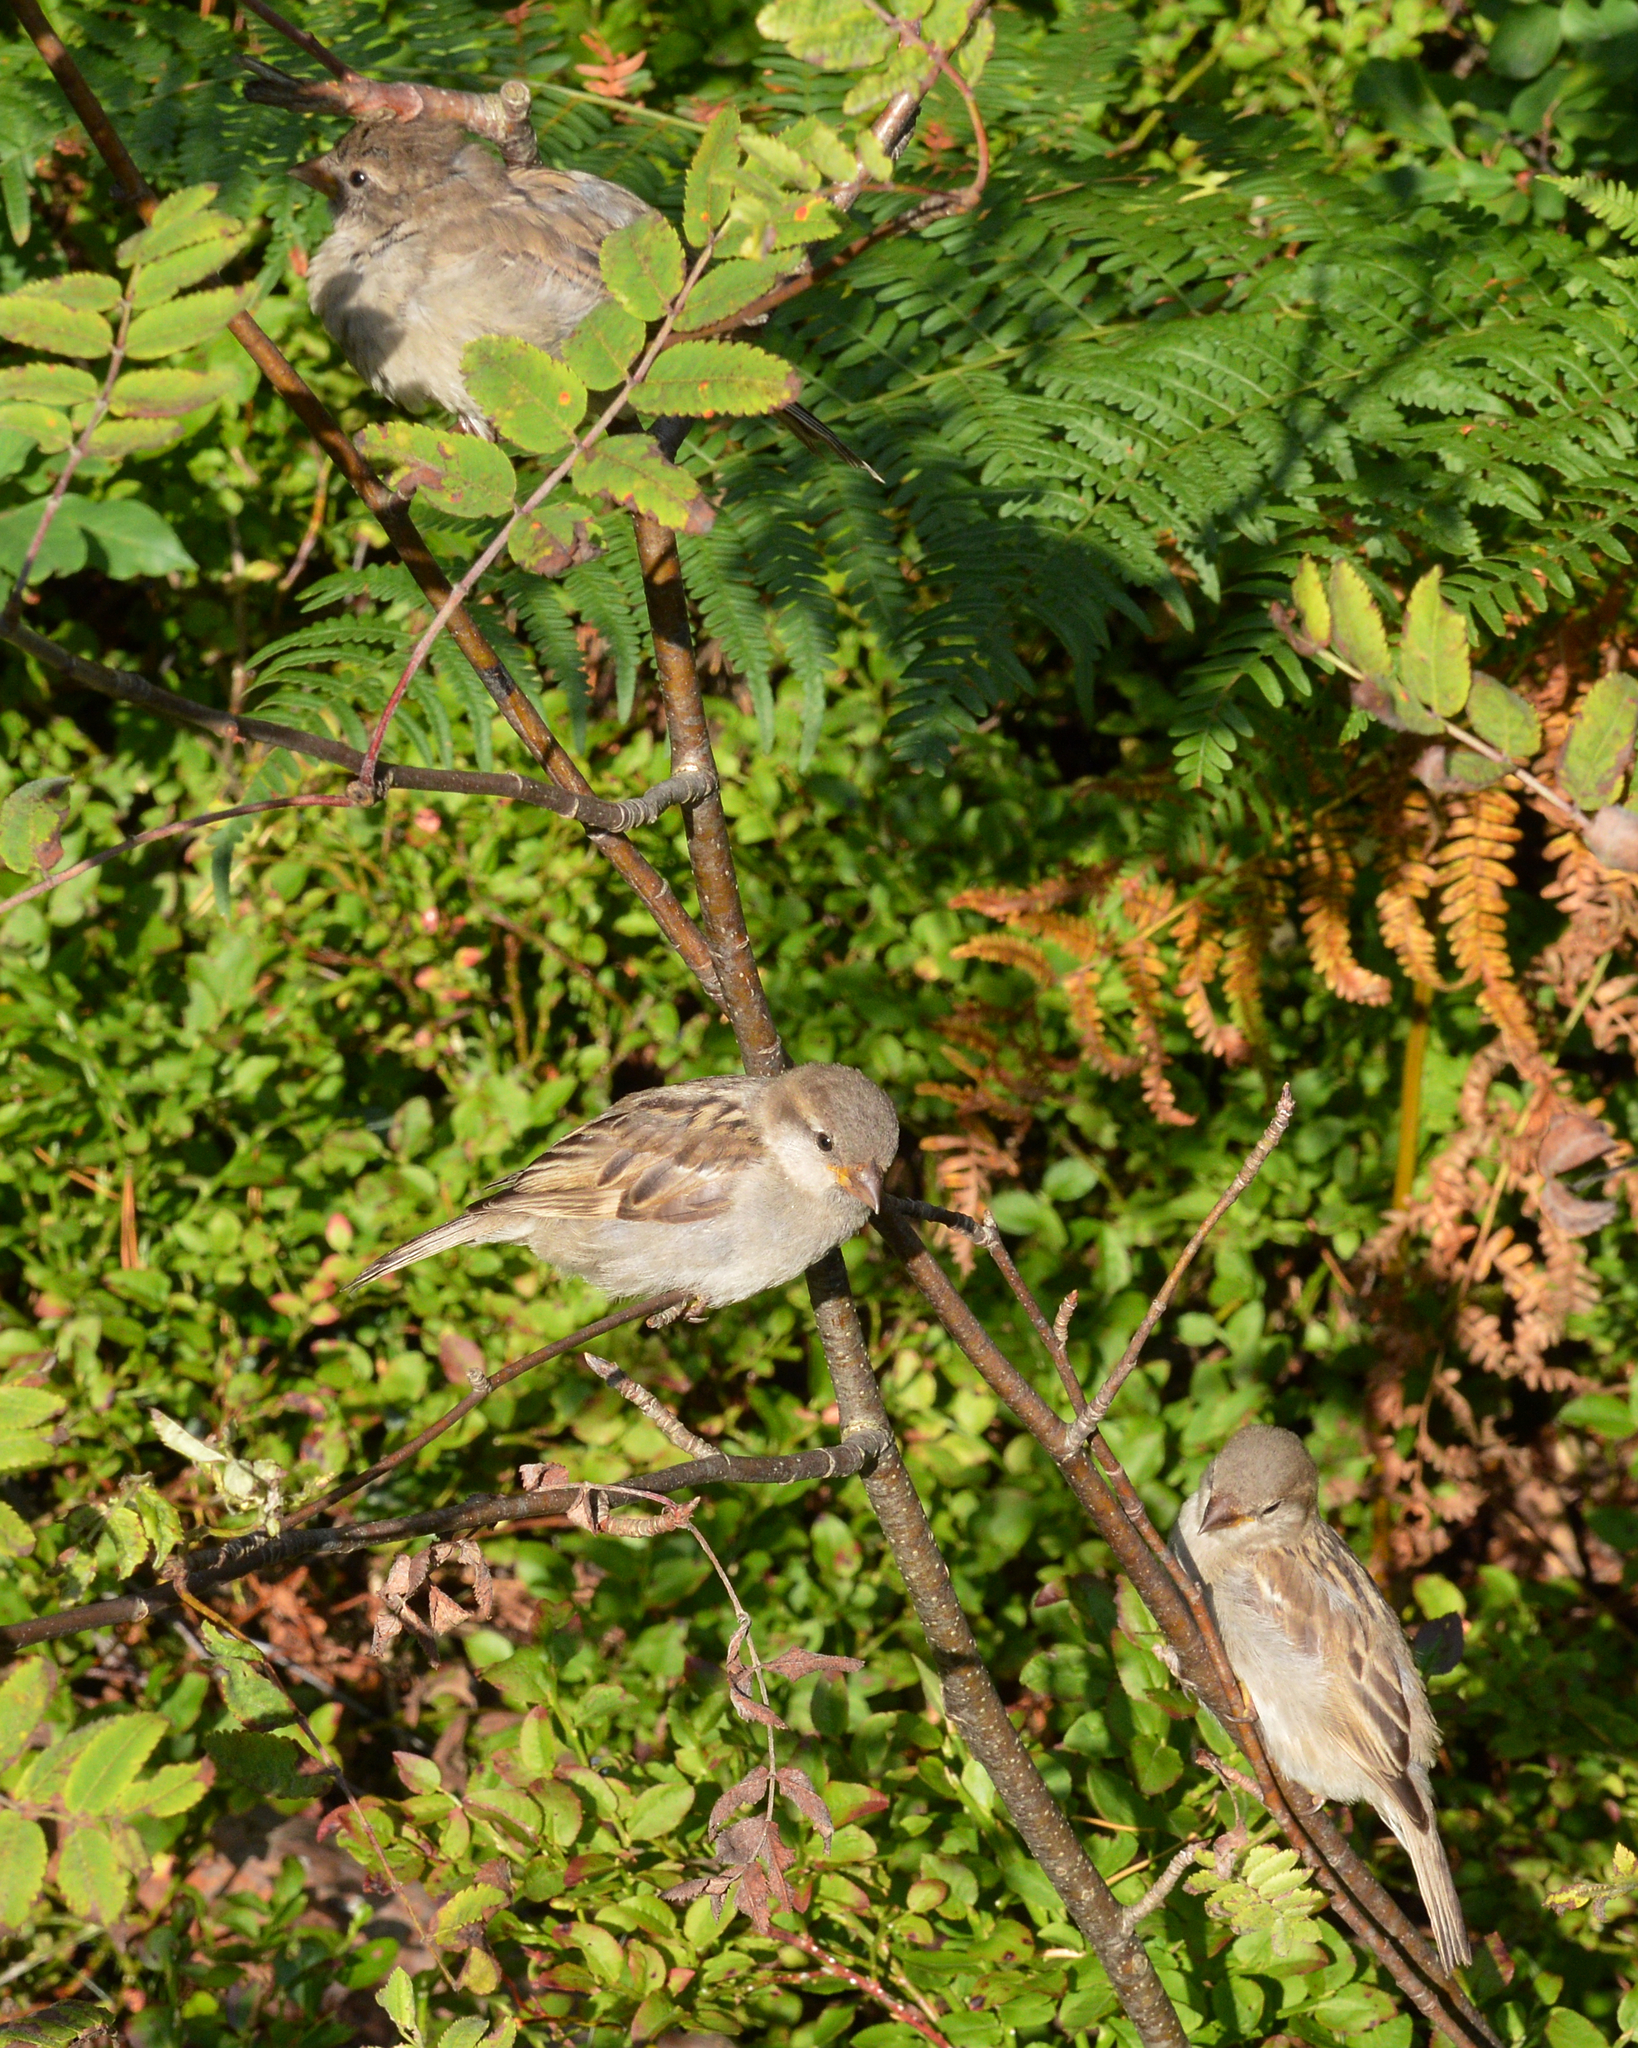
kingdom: Animalia
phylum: Chordata
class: Aves
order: Passeriformes
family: Passeridae
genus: Passer
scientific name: Passer domesticus
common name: House sparrow
